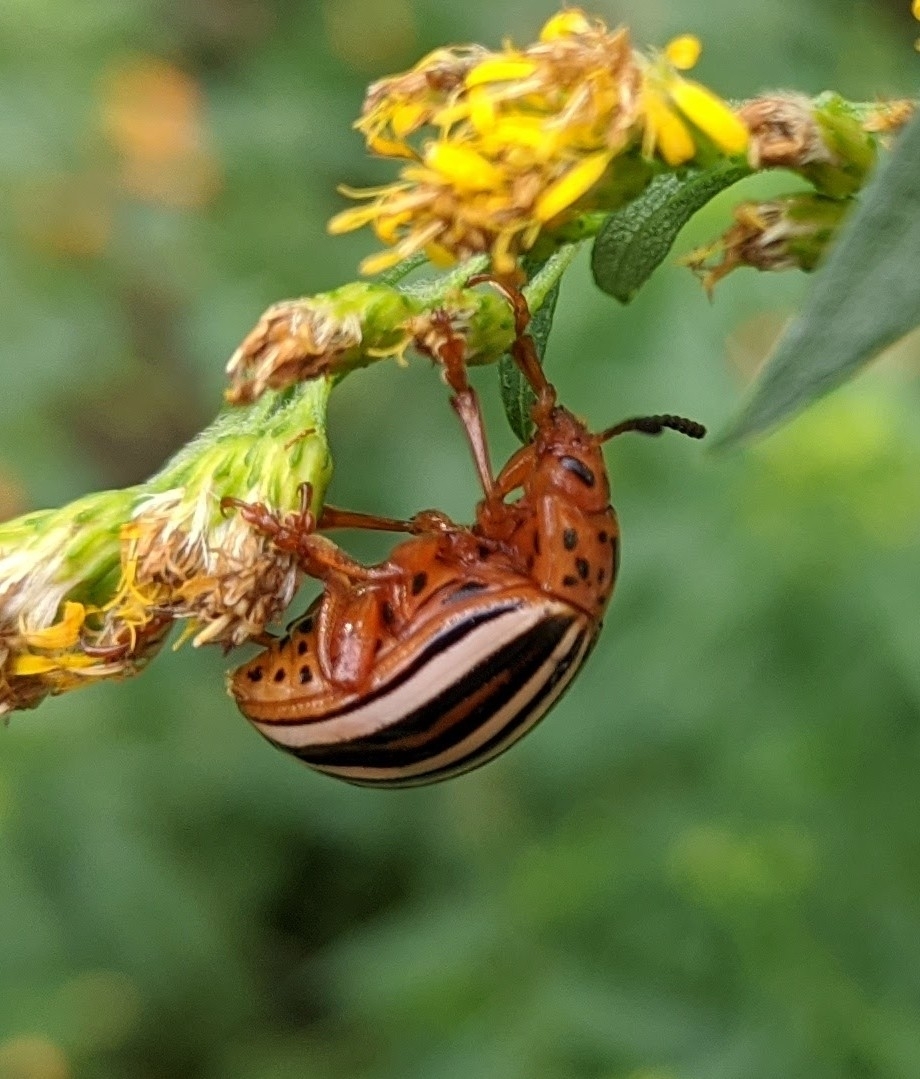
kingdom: Animalia
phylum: Arthropoda
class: Insecta
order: Coleoptera
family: Chrysomelidae
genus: Leptinotarsa
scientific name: Leptinotarsa juncta
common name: False potato beetle
